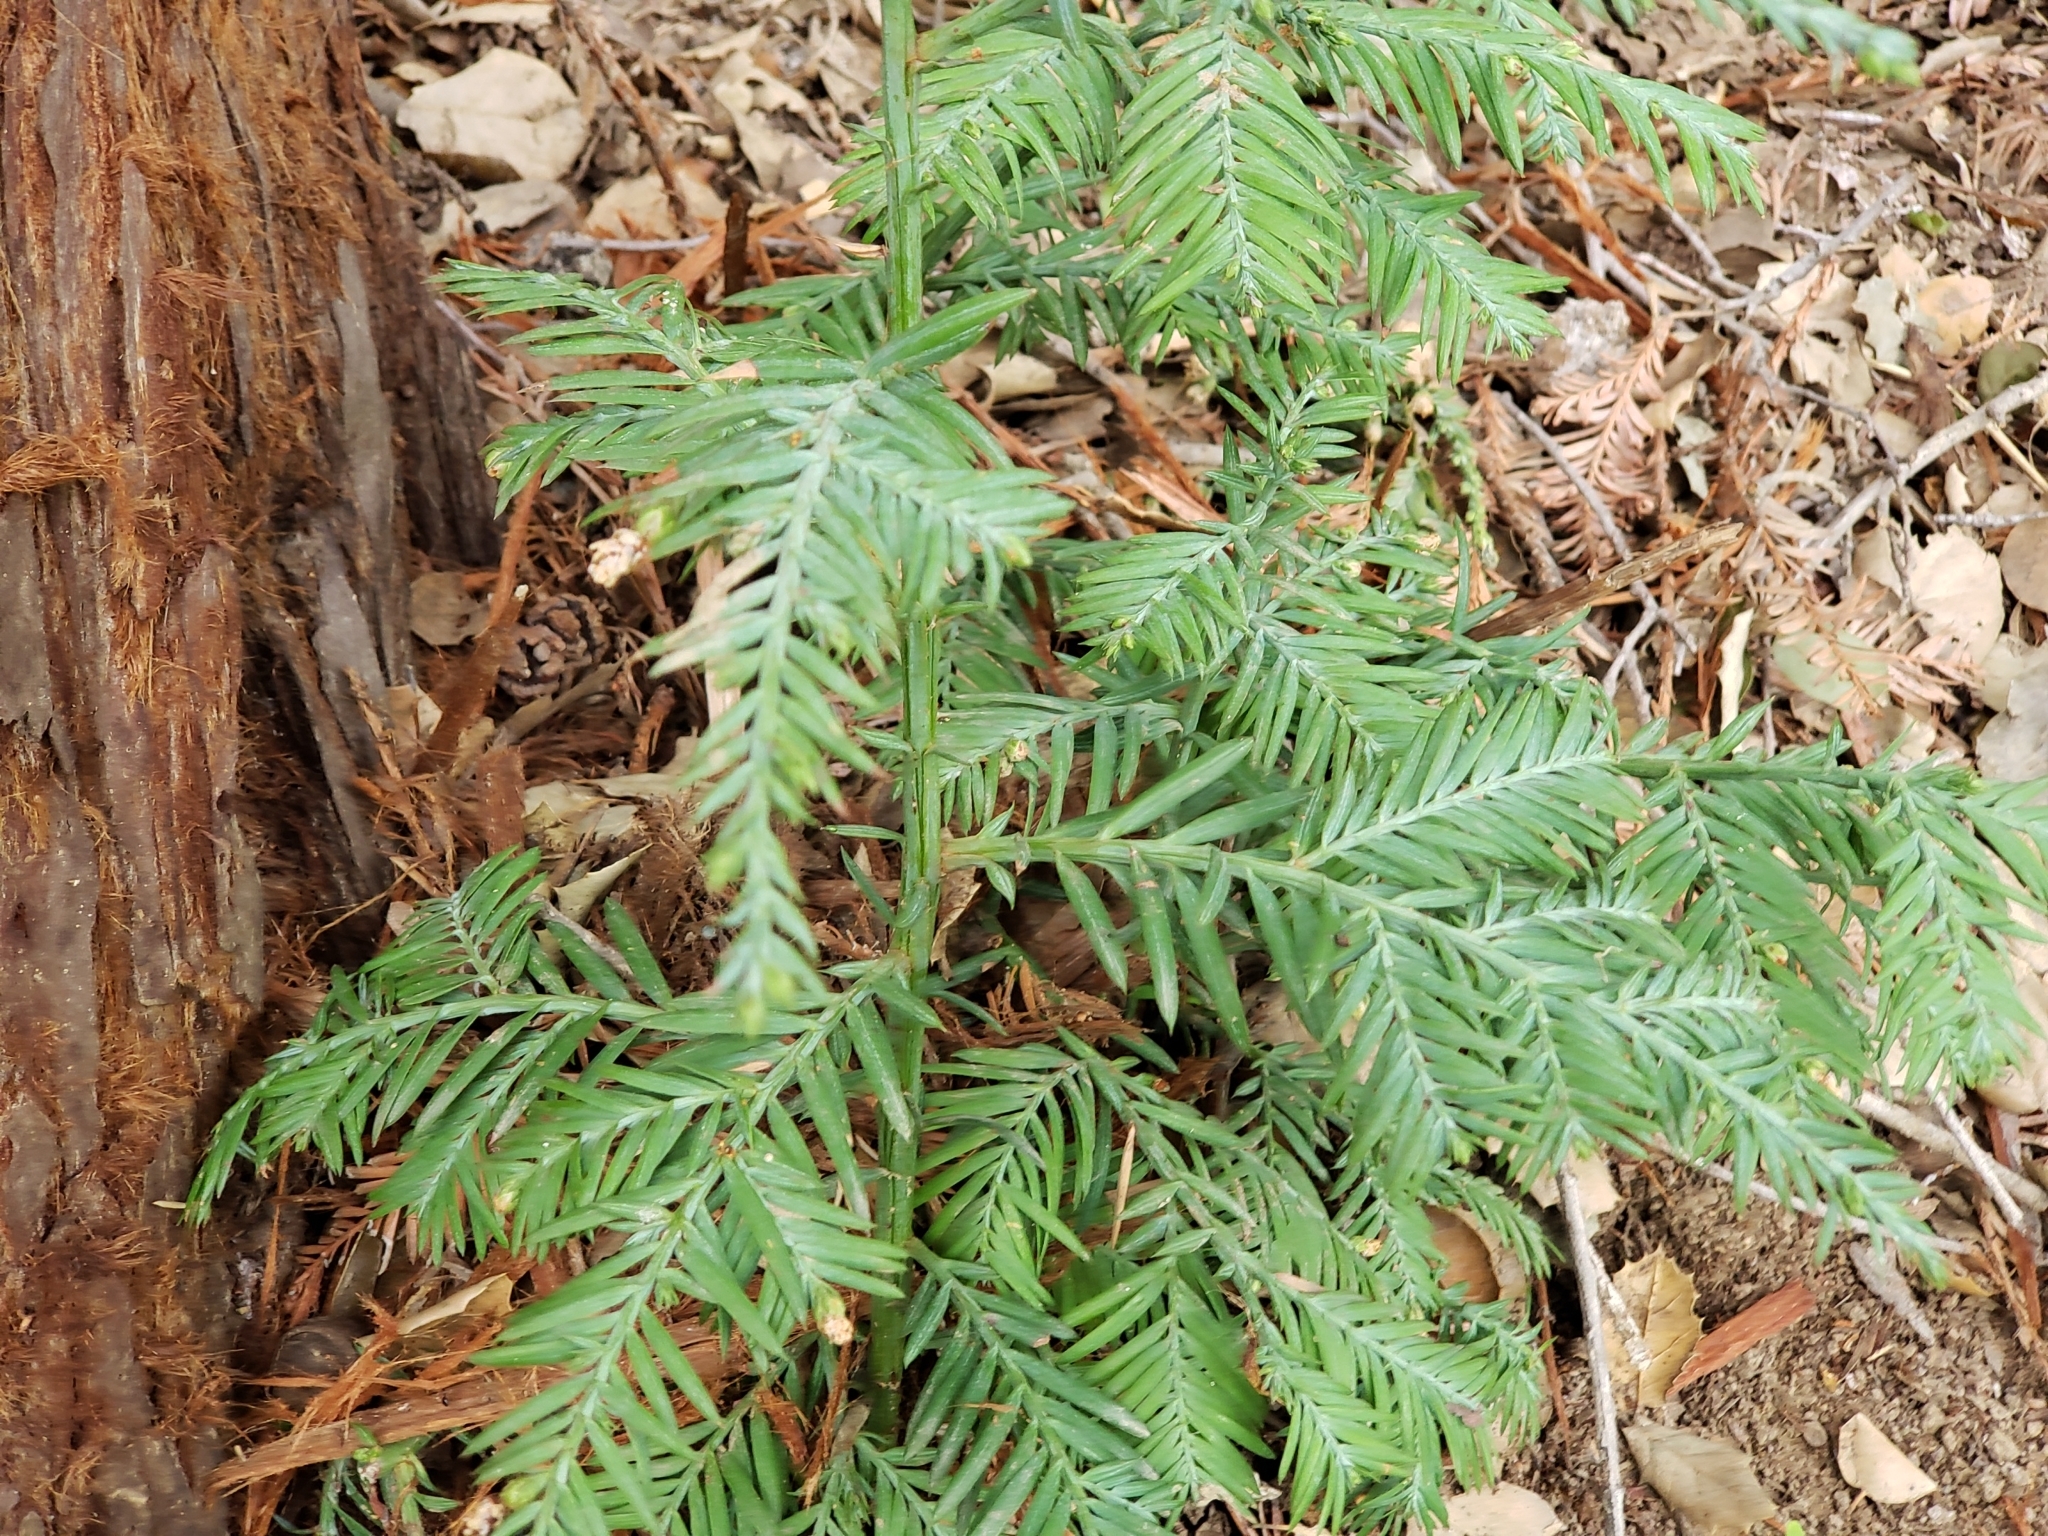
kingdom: Plantae
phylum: Tracheophyta
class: Pinopsida
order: Pinales
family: Cupressaceae
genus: Sequoia
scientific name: Sequoia sempervirens
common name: Coast redwood
